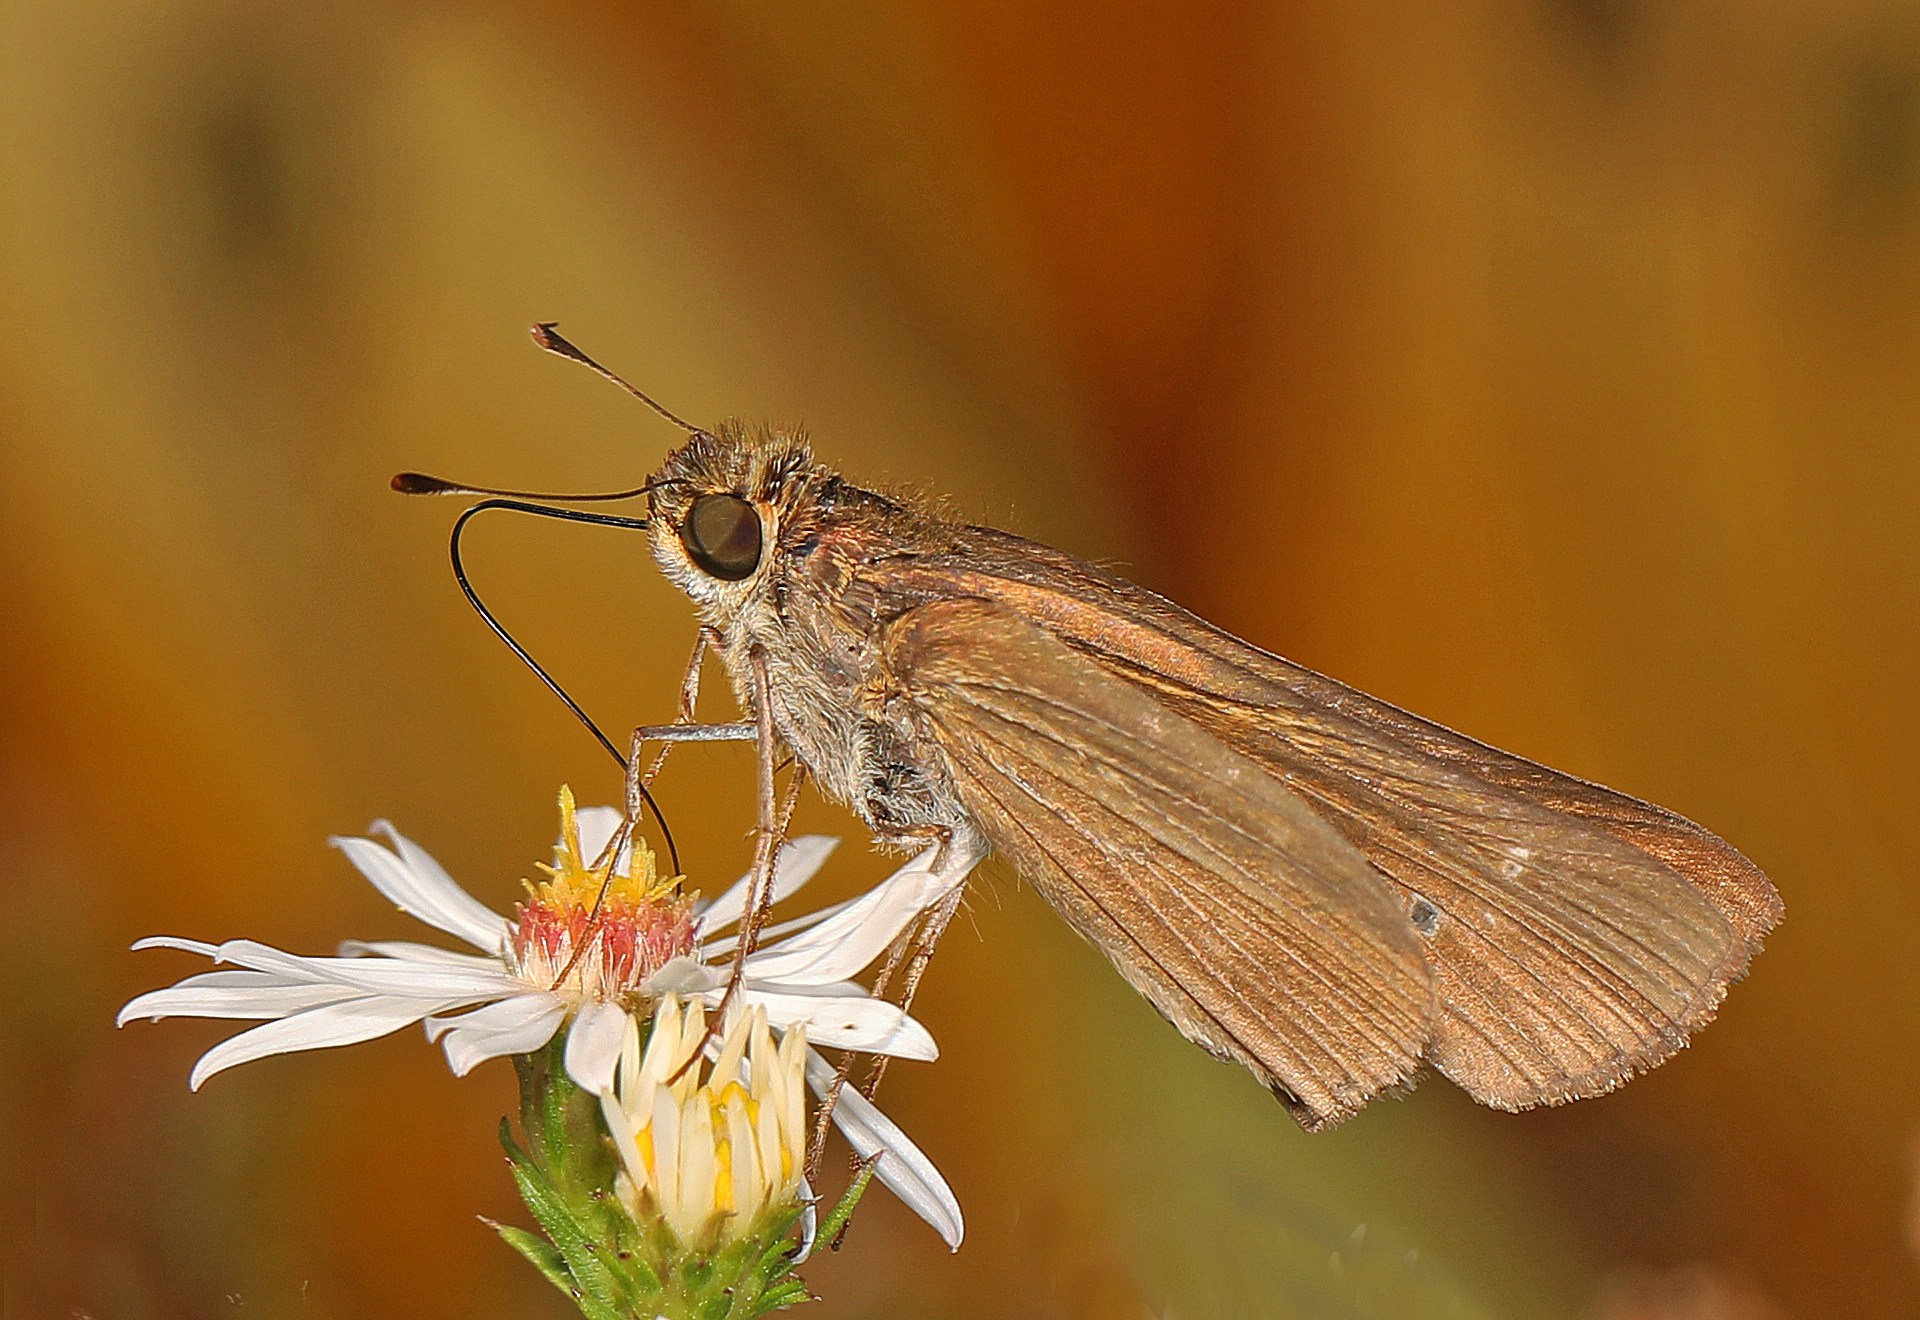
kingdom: Animalia
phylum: Arthropoda
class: Insecta
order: Lepidoptera
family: Hesperiidae
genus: Panoquina
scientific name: Panoquina ocola
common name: Ocola skipper
